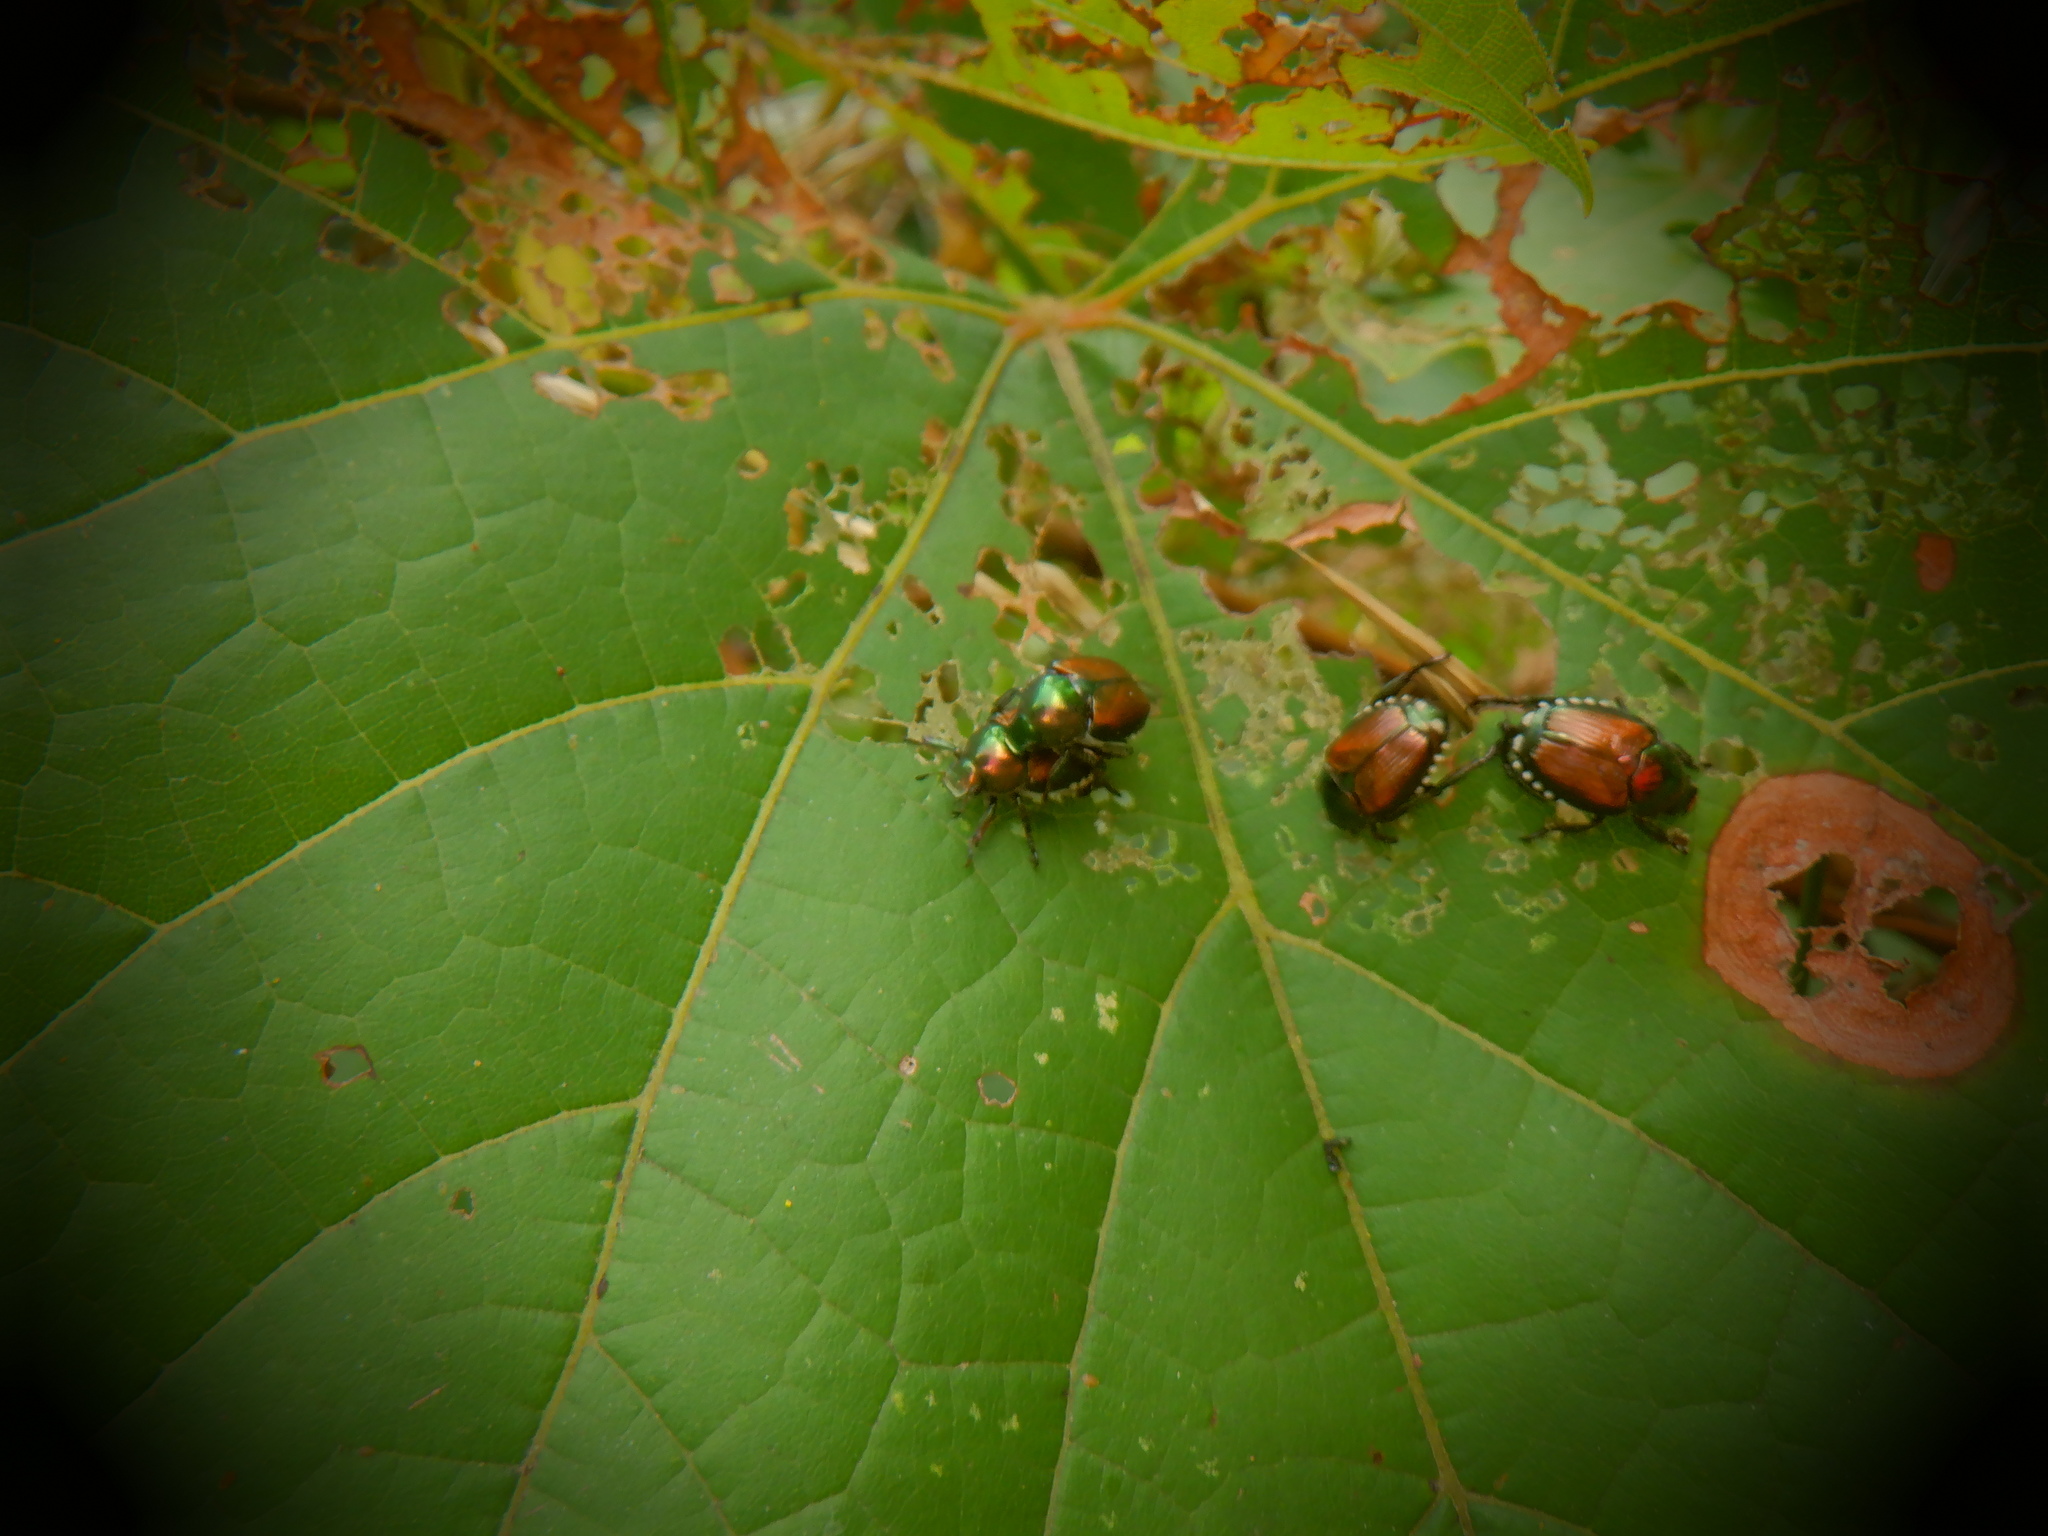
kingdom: Animalia
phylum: Arthropoda
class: Insecta
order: Coleoptera
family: Scarabaeidae
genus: Popillia
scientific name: Popillia japonica
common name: Japanese beetle
